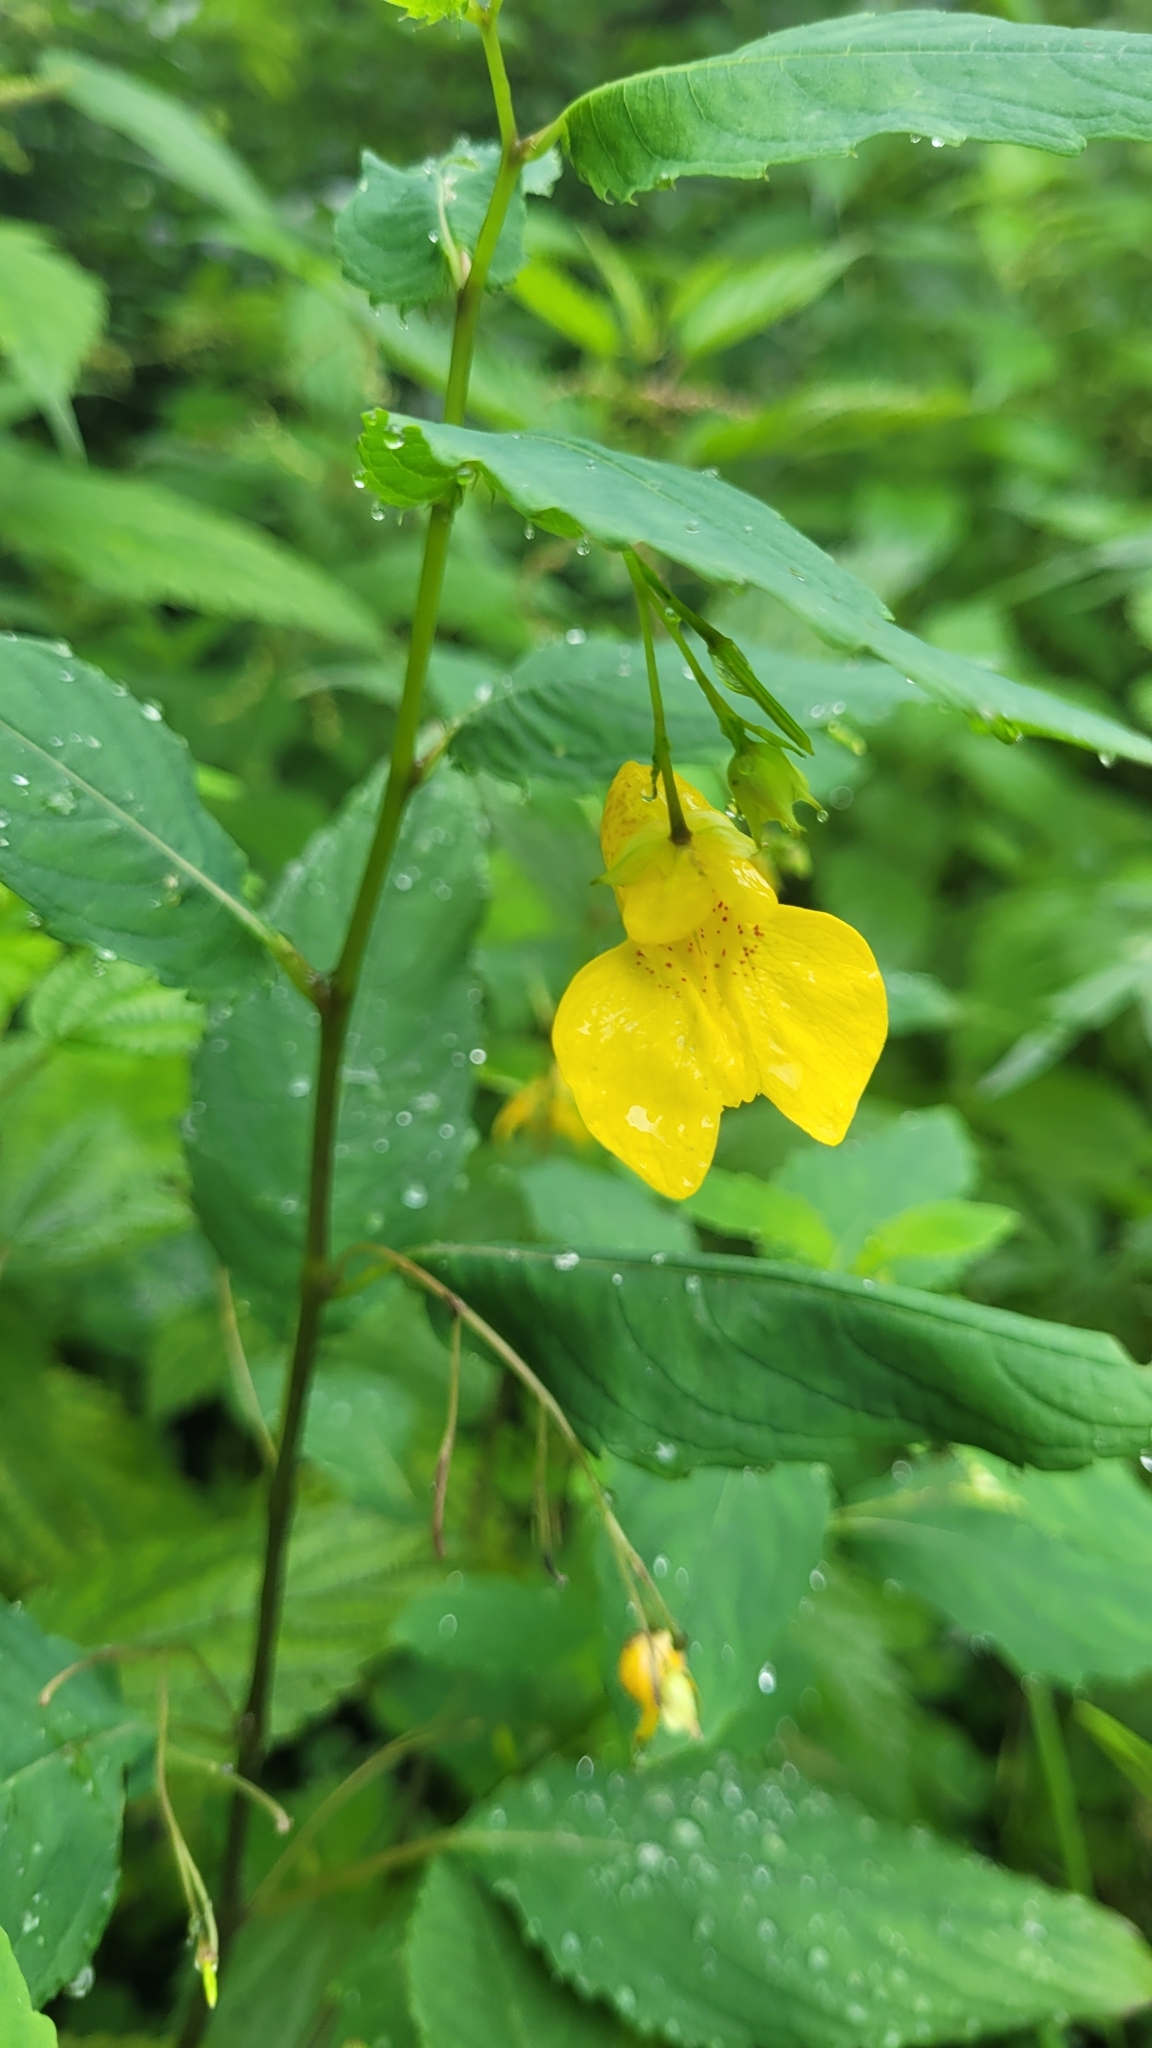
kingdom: Plantae
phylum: Tracheophyta
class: Magnoliopsida
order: Ericales
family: Balsaminaceae
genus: Impatiens
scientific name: Impatiens noli-tangere
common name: Touch-me-not balsam
